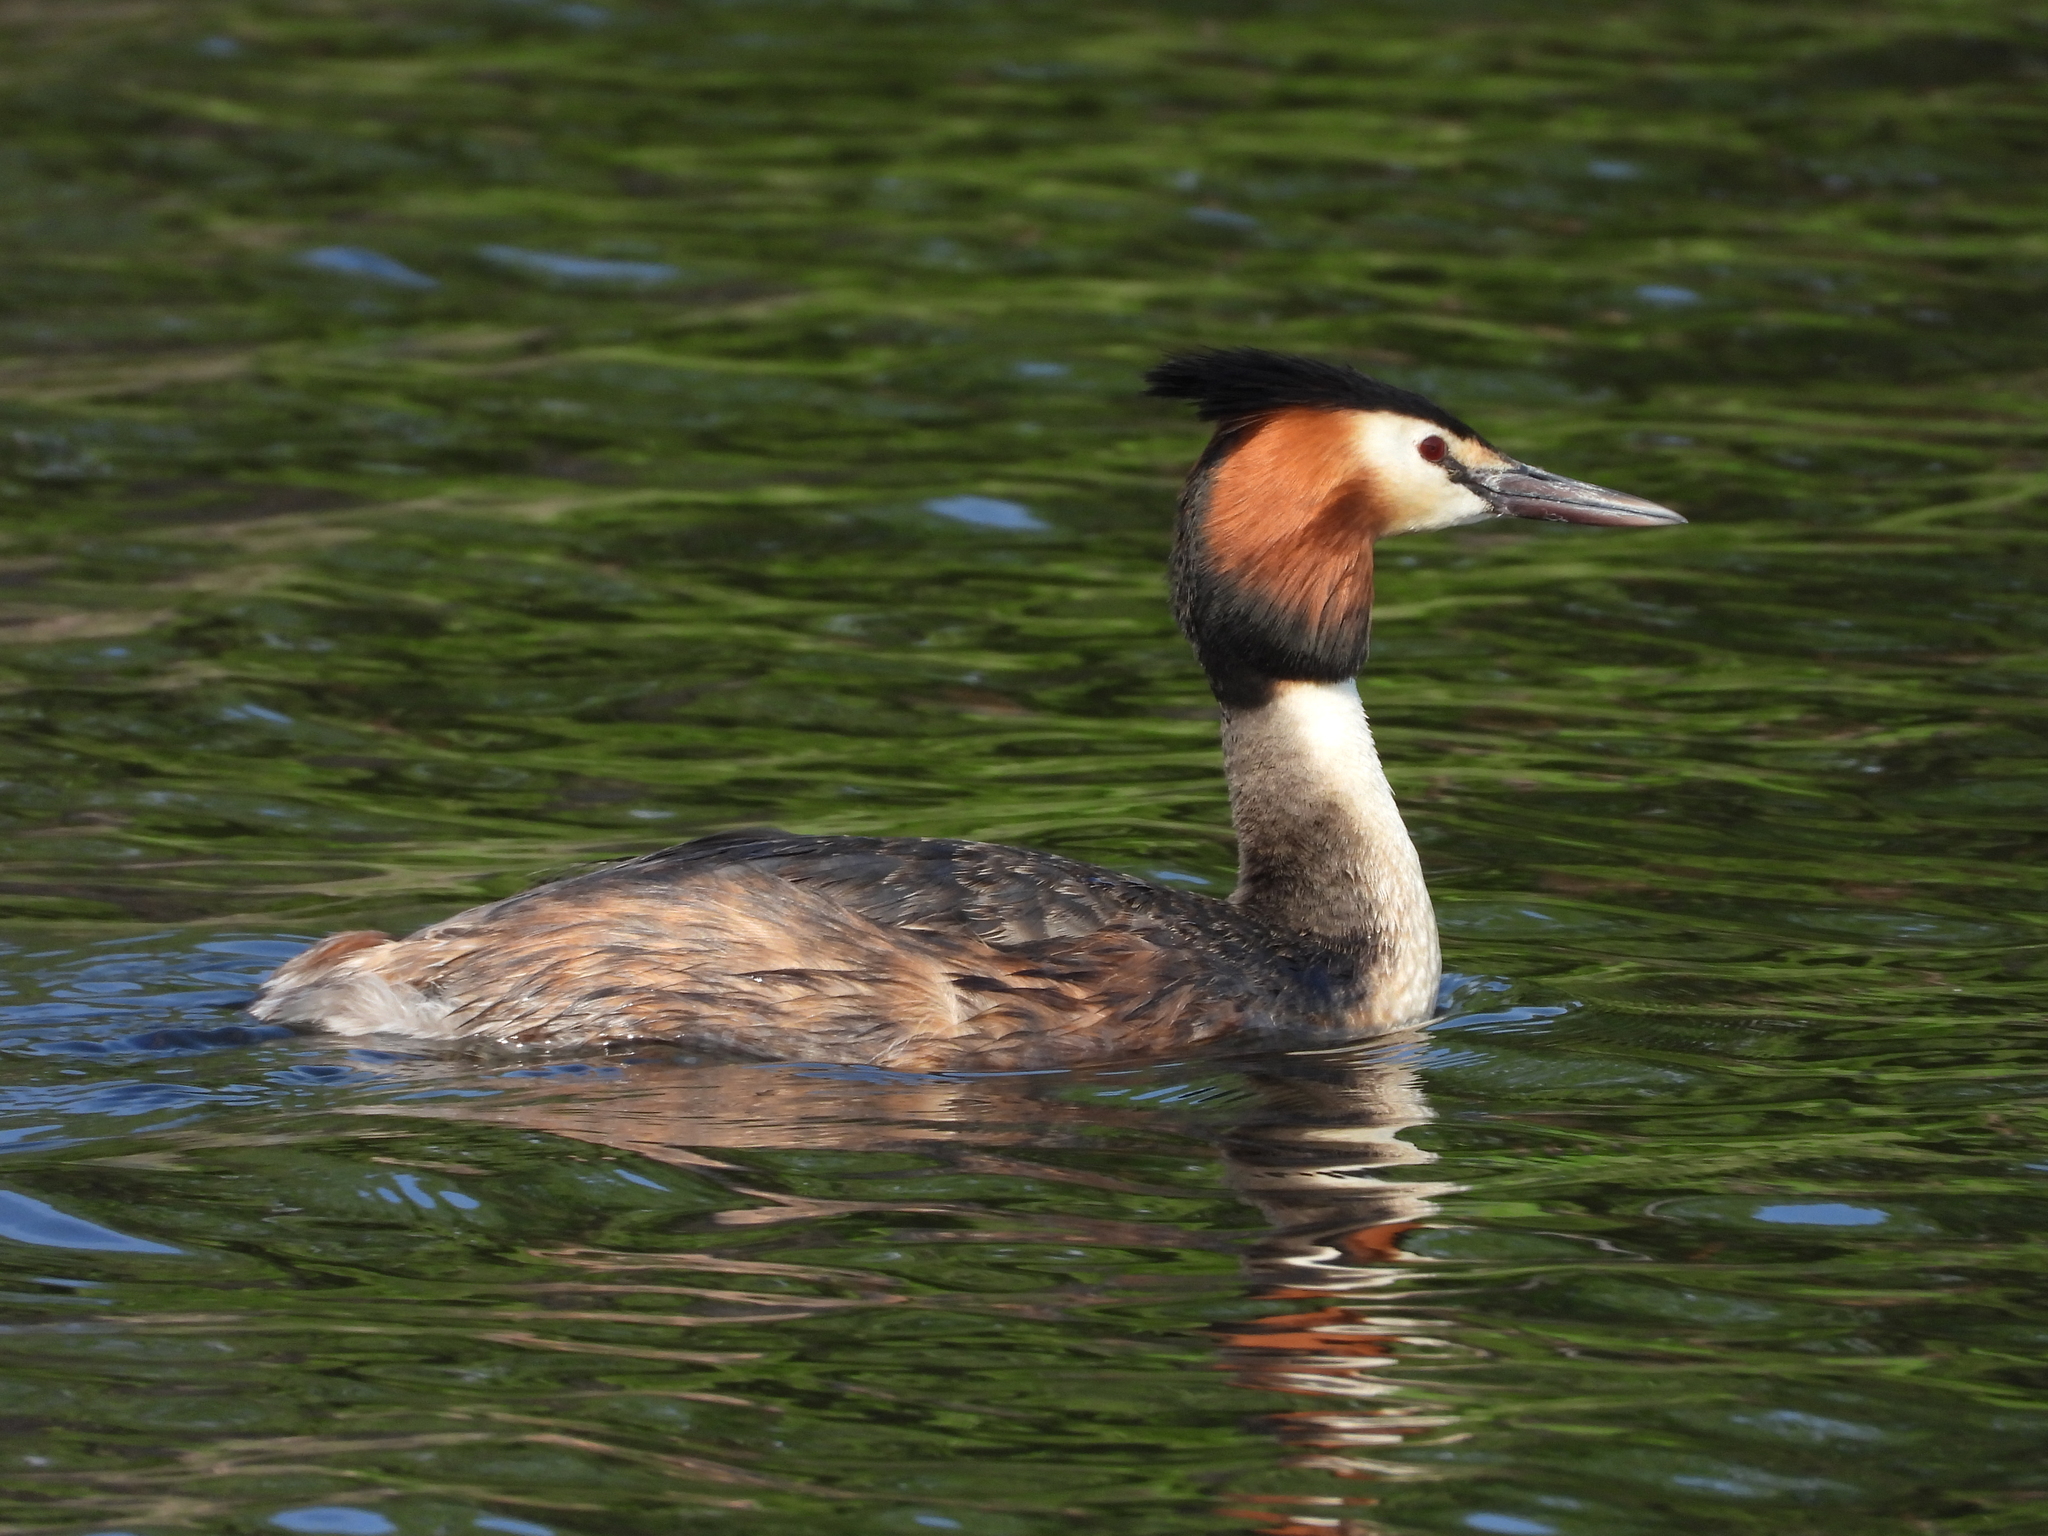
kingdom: Animalia
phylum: Chordata
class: Aves
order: Podicipediformes
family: Podicipedidae
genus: Podiceps
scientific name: Podiceps cristatus
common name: Great crested grebe
